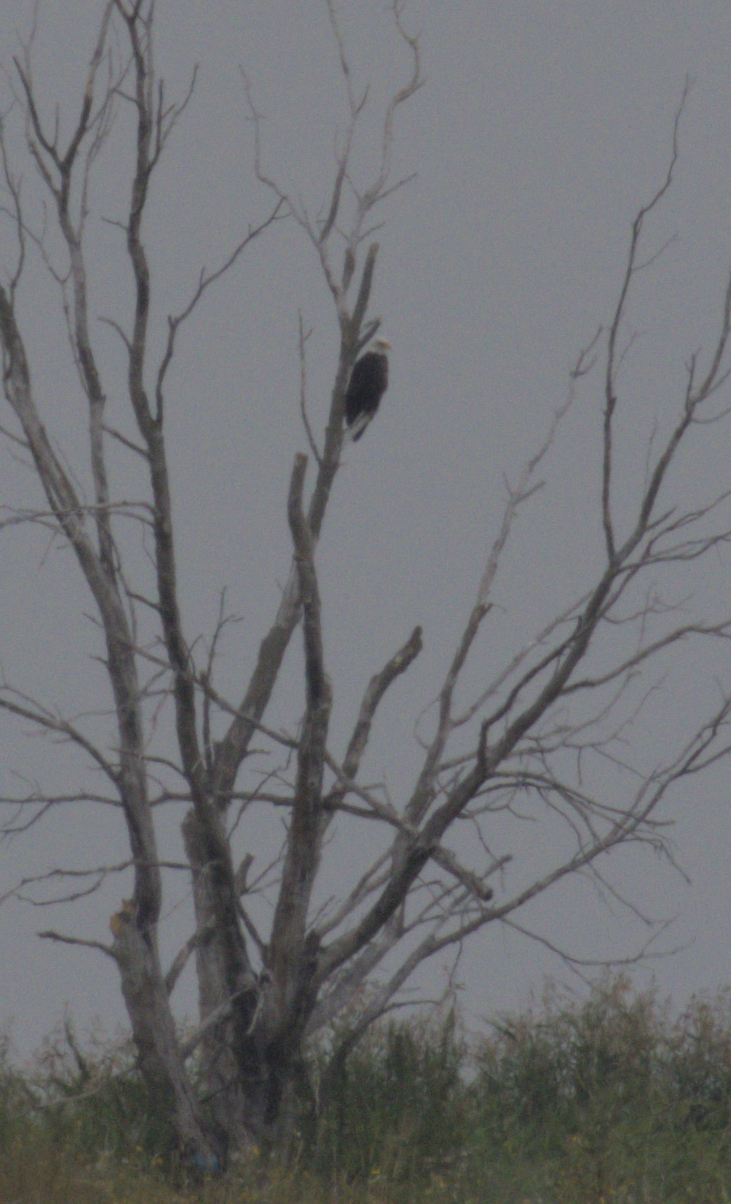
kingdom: Animalia
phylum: Chordata
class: Aves
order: Accipitriformes
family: Accipitridae
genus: Haliaeetus
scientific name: Haliaeetus leucocephalus
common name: Bald eagle
